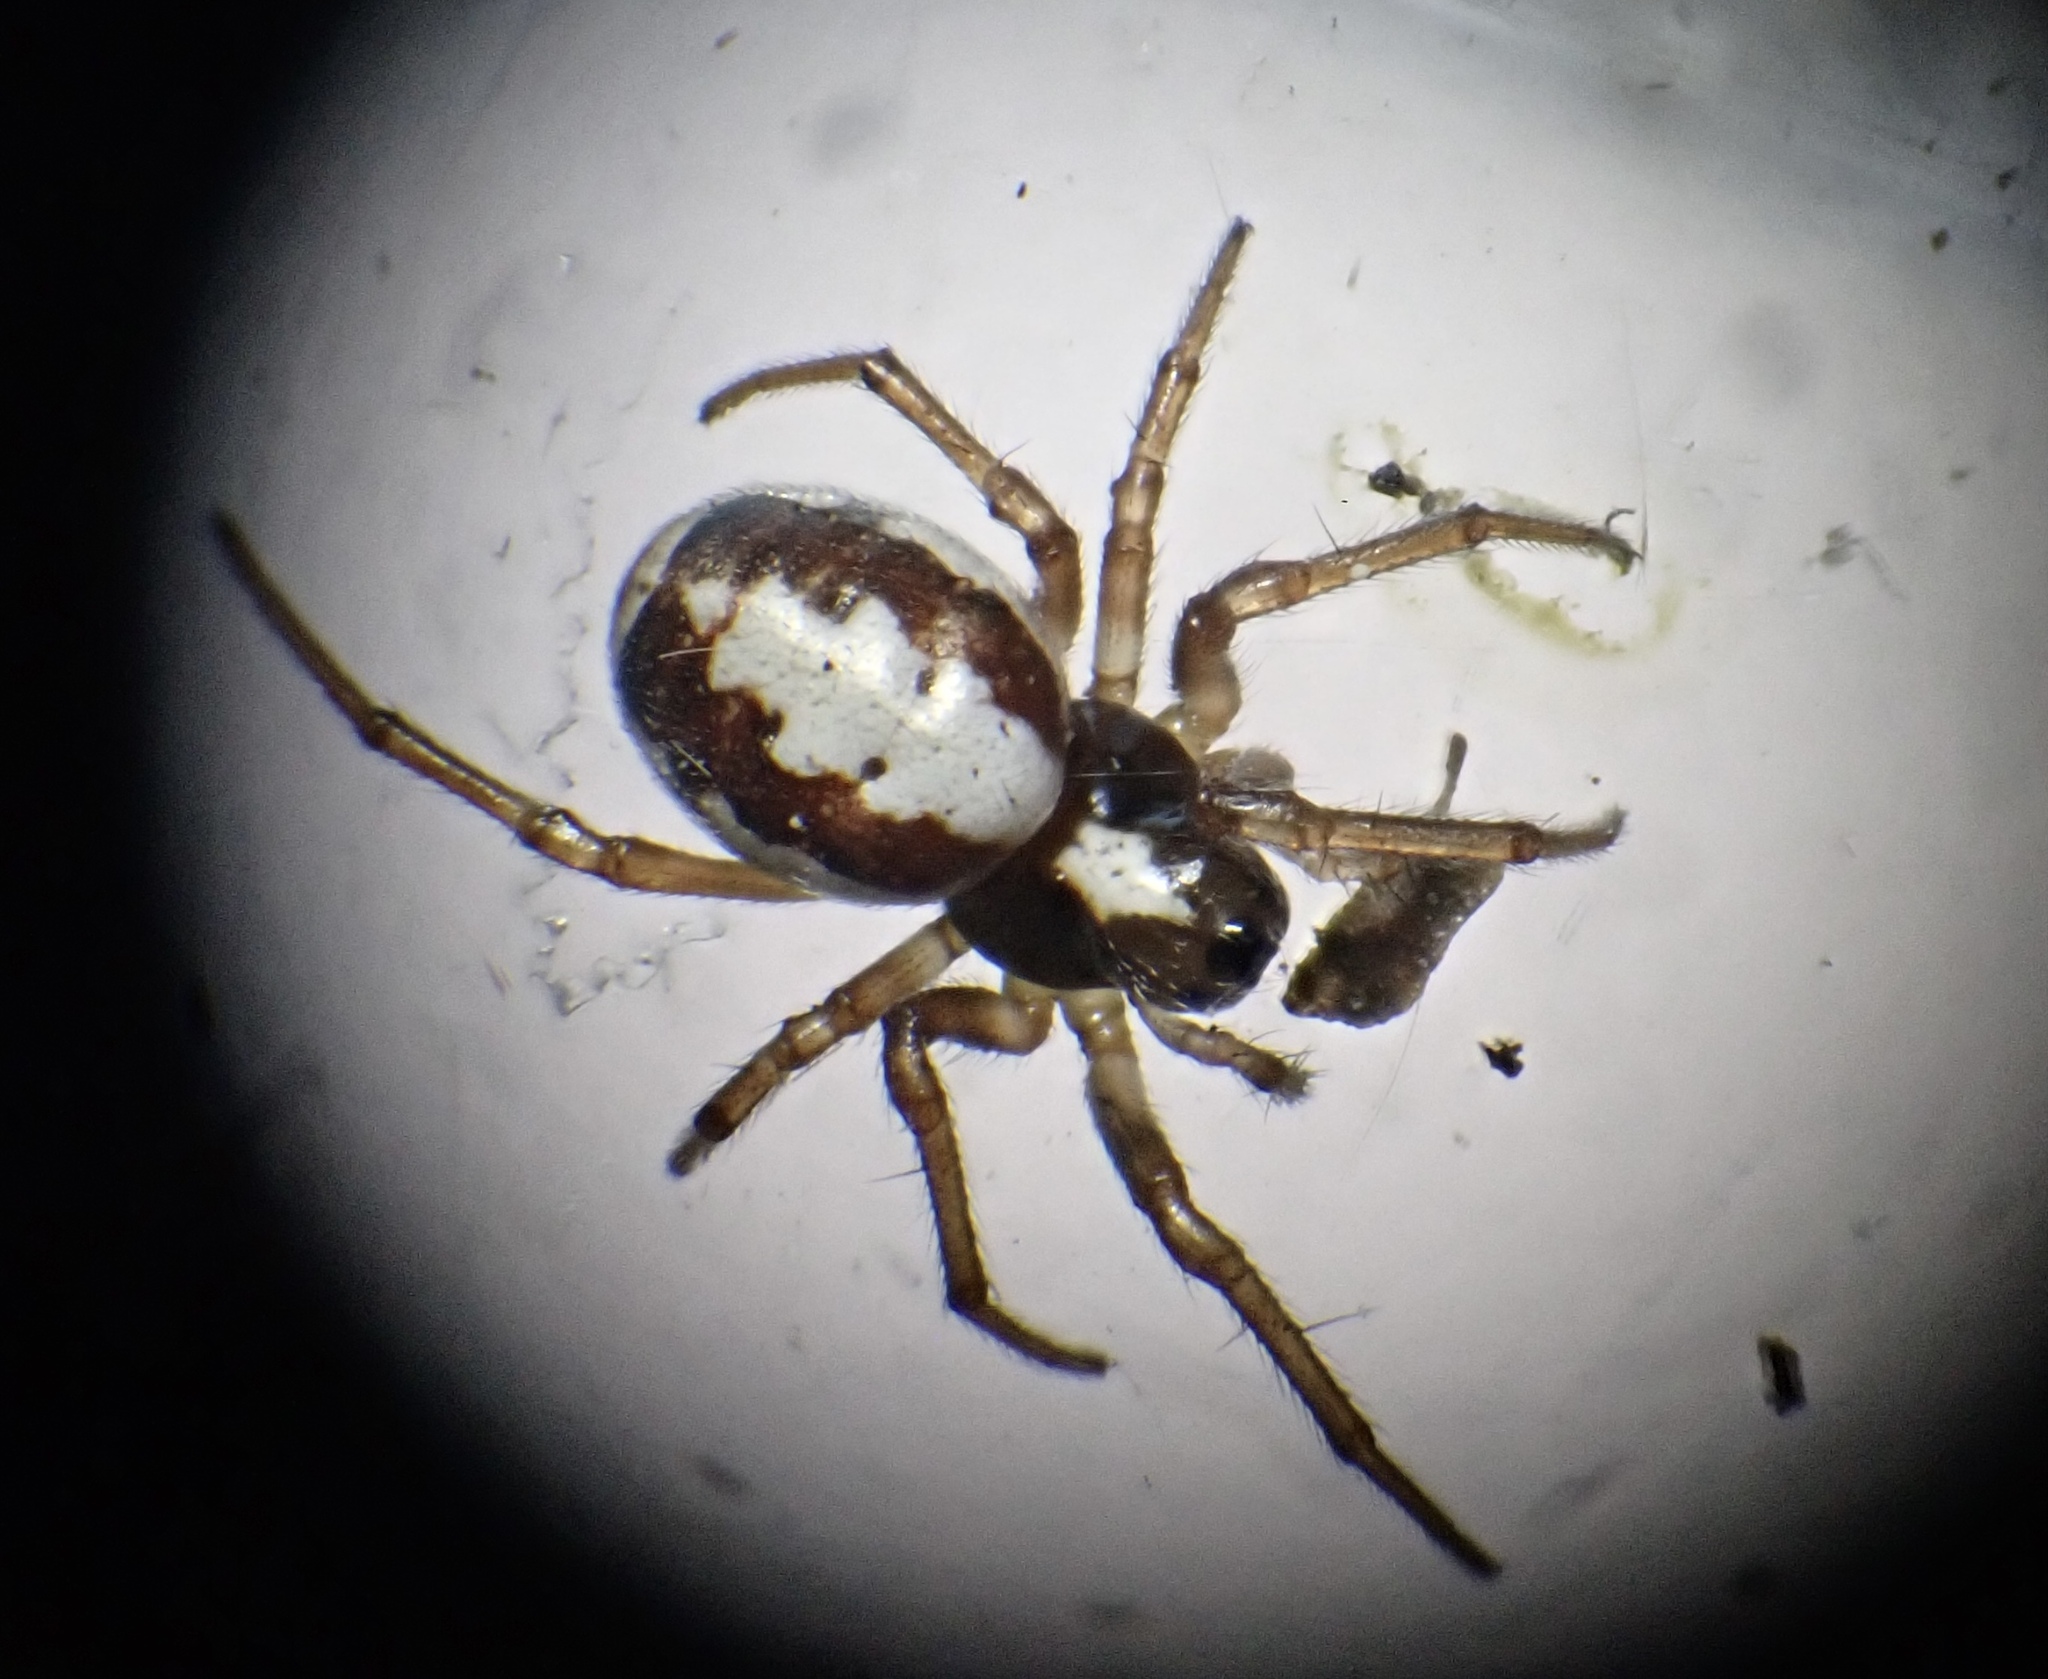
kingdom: Animalia
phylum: Arthropoda
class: Arachnida
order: Araneae
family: Araneidae
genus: Hypsosinga
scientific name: Hypsosinga albovittata
